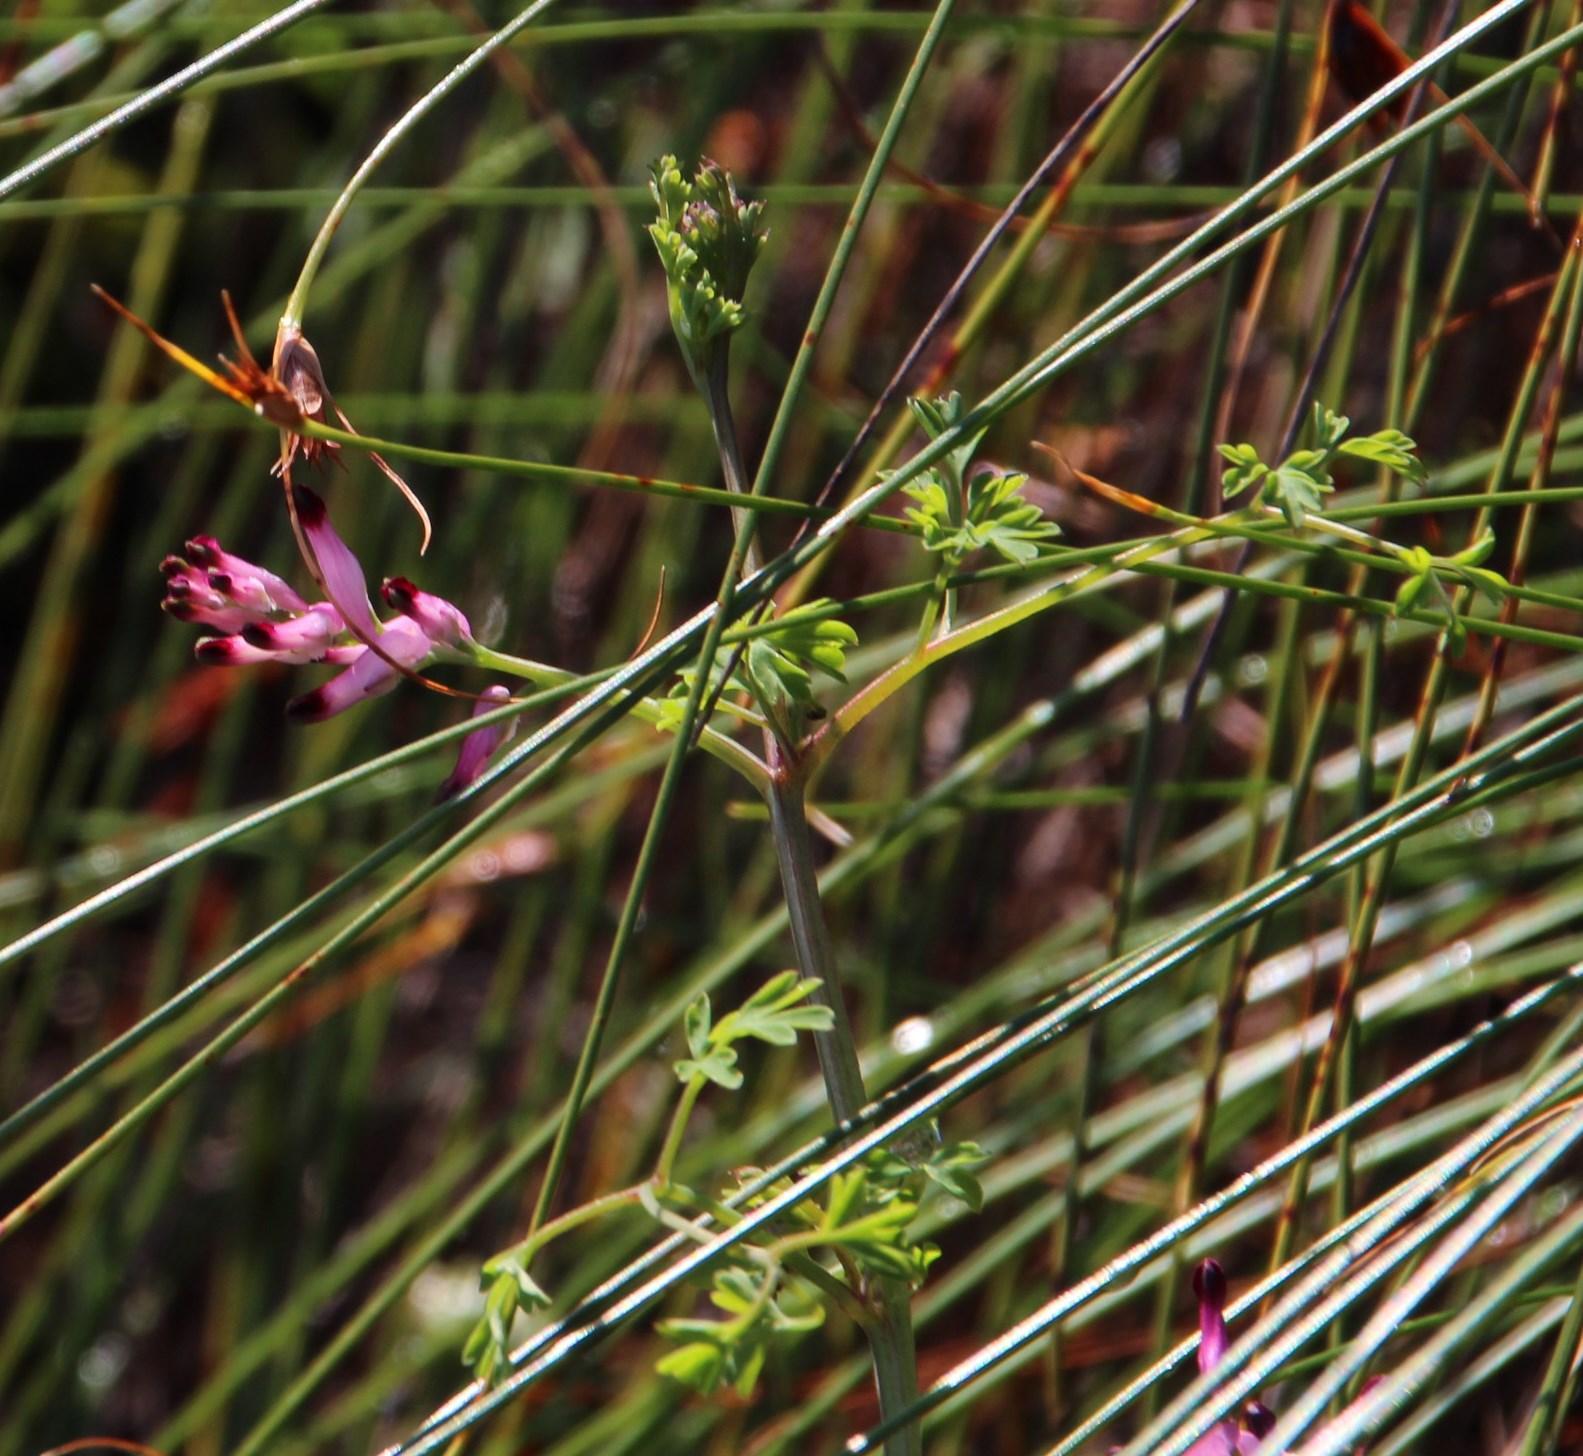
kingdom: Plantae
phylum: Tracheophyta
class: Magnoliopsida
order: Ranunculales
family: Papaveraceae
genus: Fumaria
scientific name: Fumaria muralis
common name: Common ramping-fumitory
